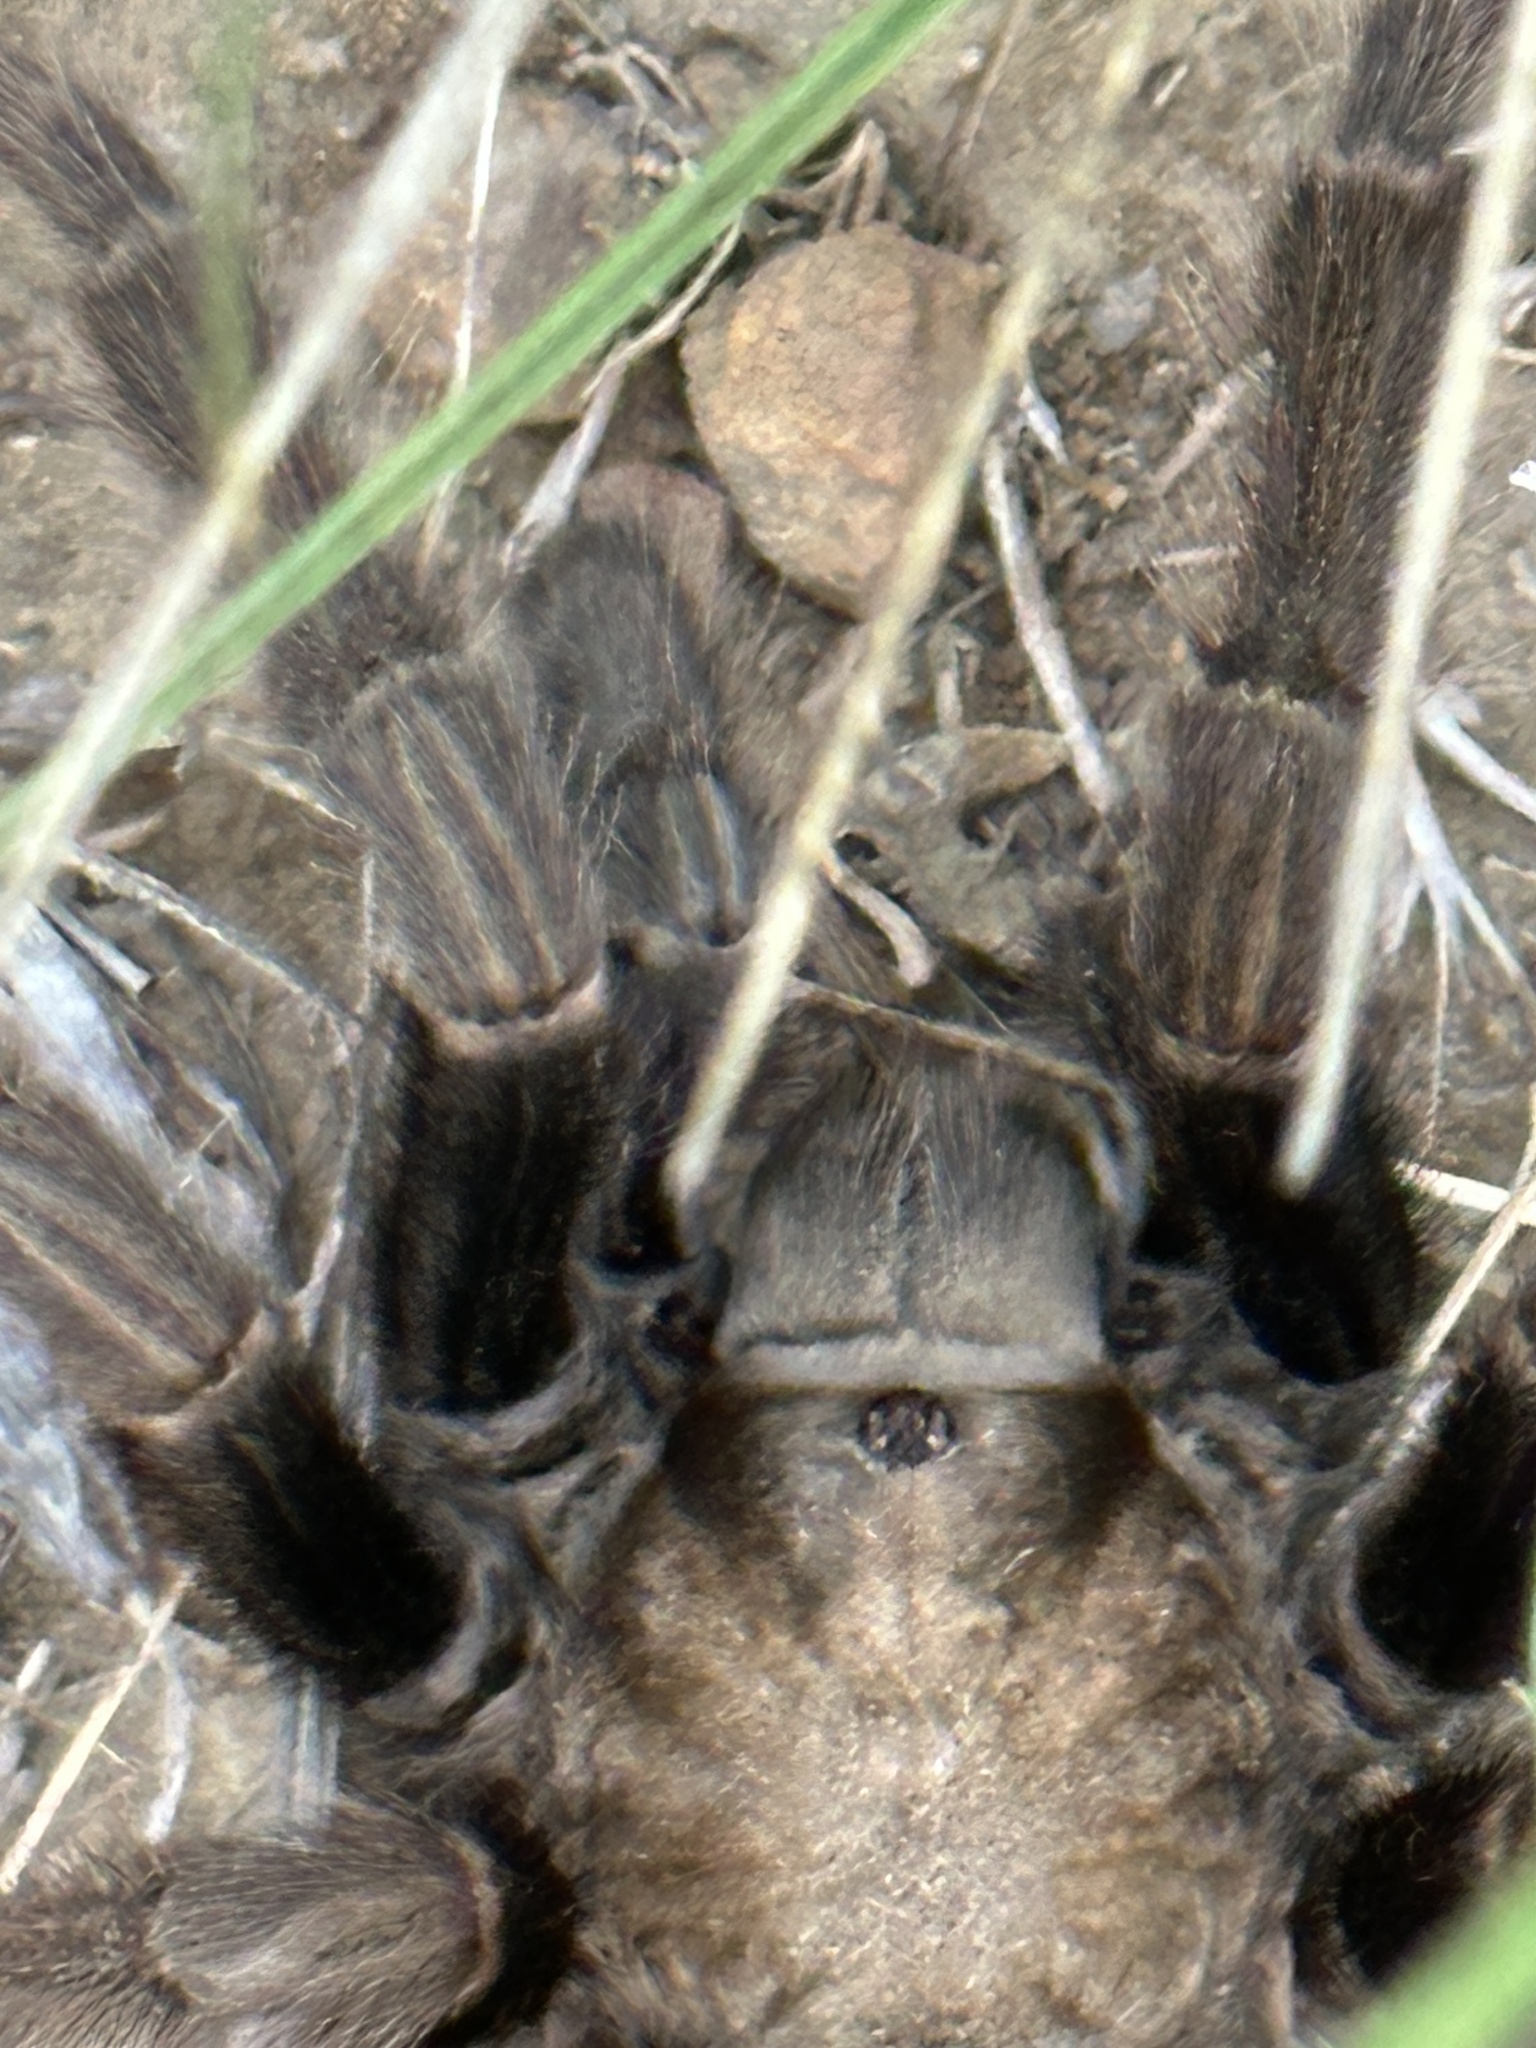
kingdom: Animalia
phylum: Arthropoda
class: Arachnida
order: Araneae
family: Theraphosidae
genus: Aphonopelma
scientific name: Aphonopelma eutylenum
